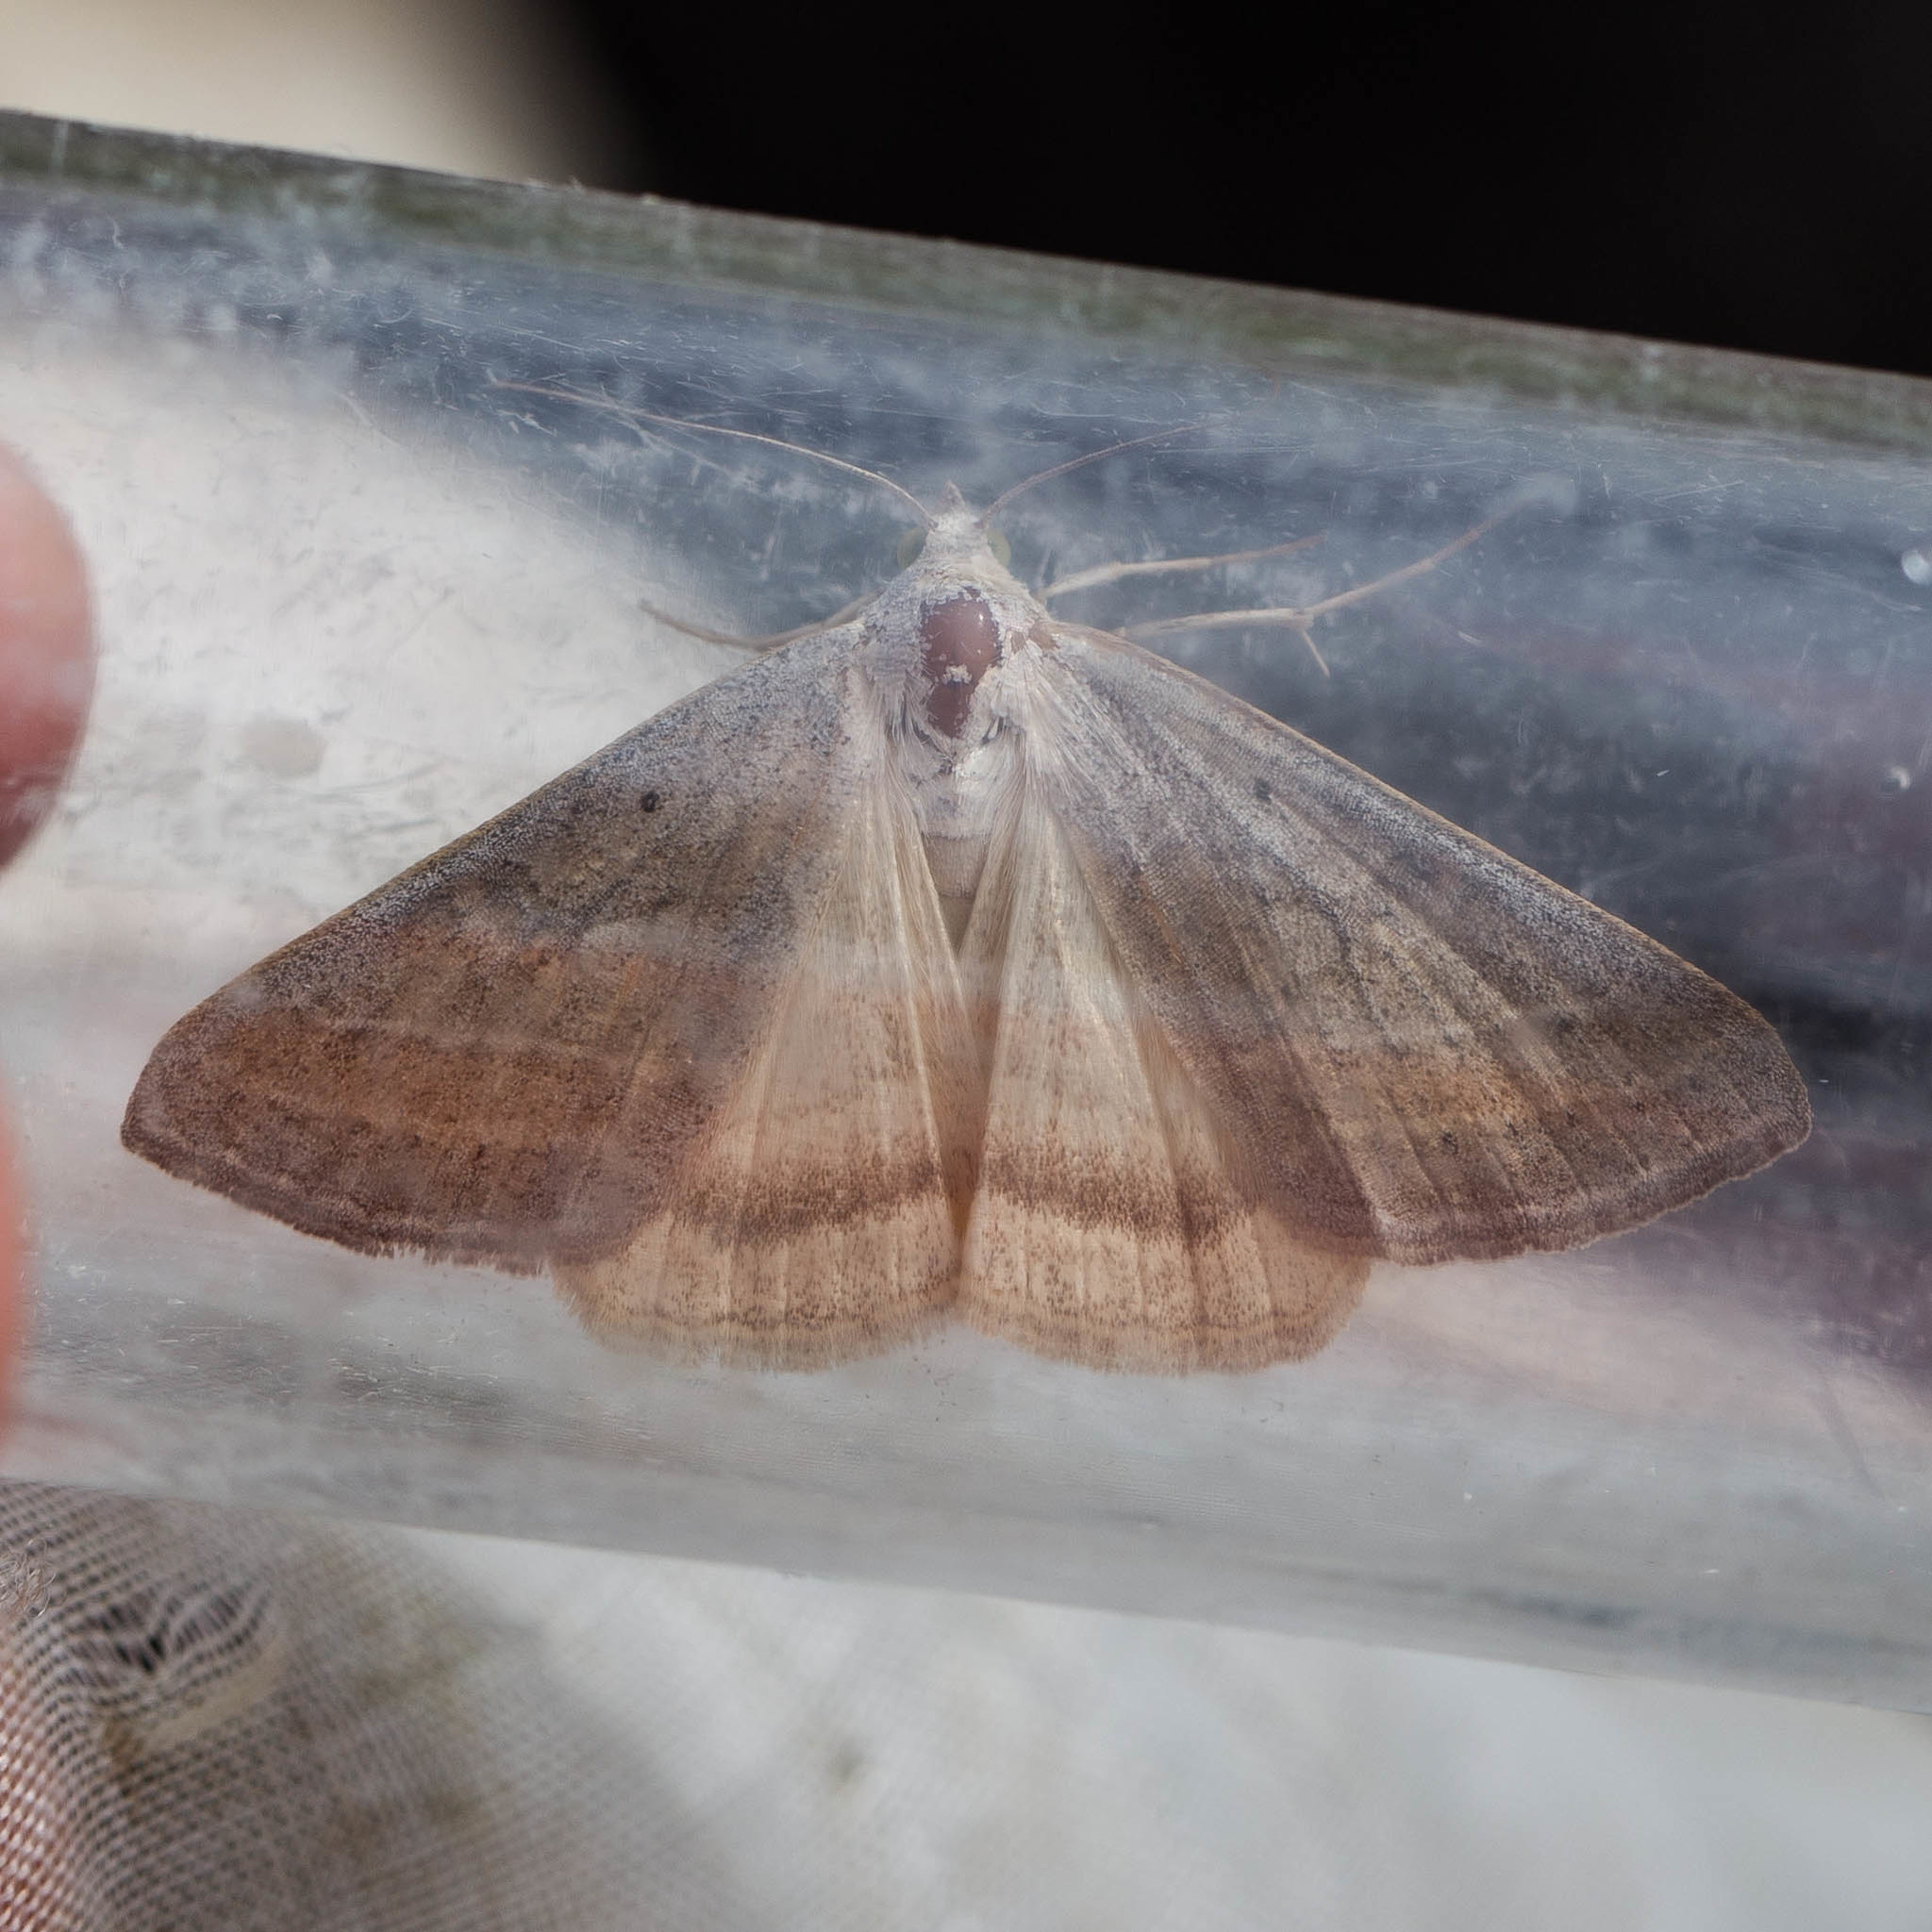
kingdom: Animalia
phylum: Arthropoda
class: Insecta
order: Lepidoptera
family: Erebidae
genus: Caenurgia
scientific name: Caenurgia togataria
